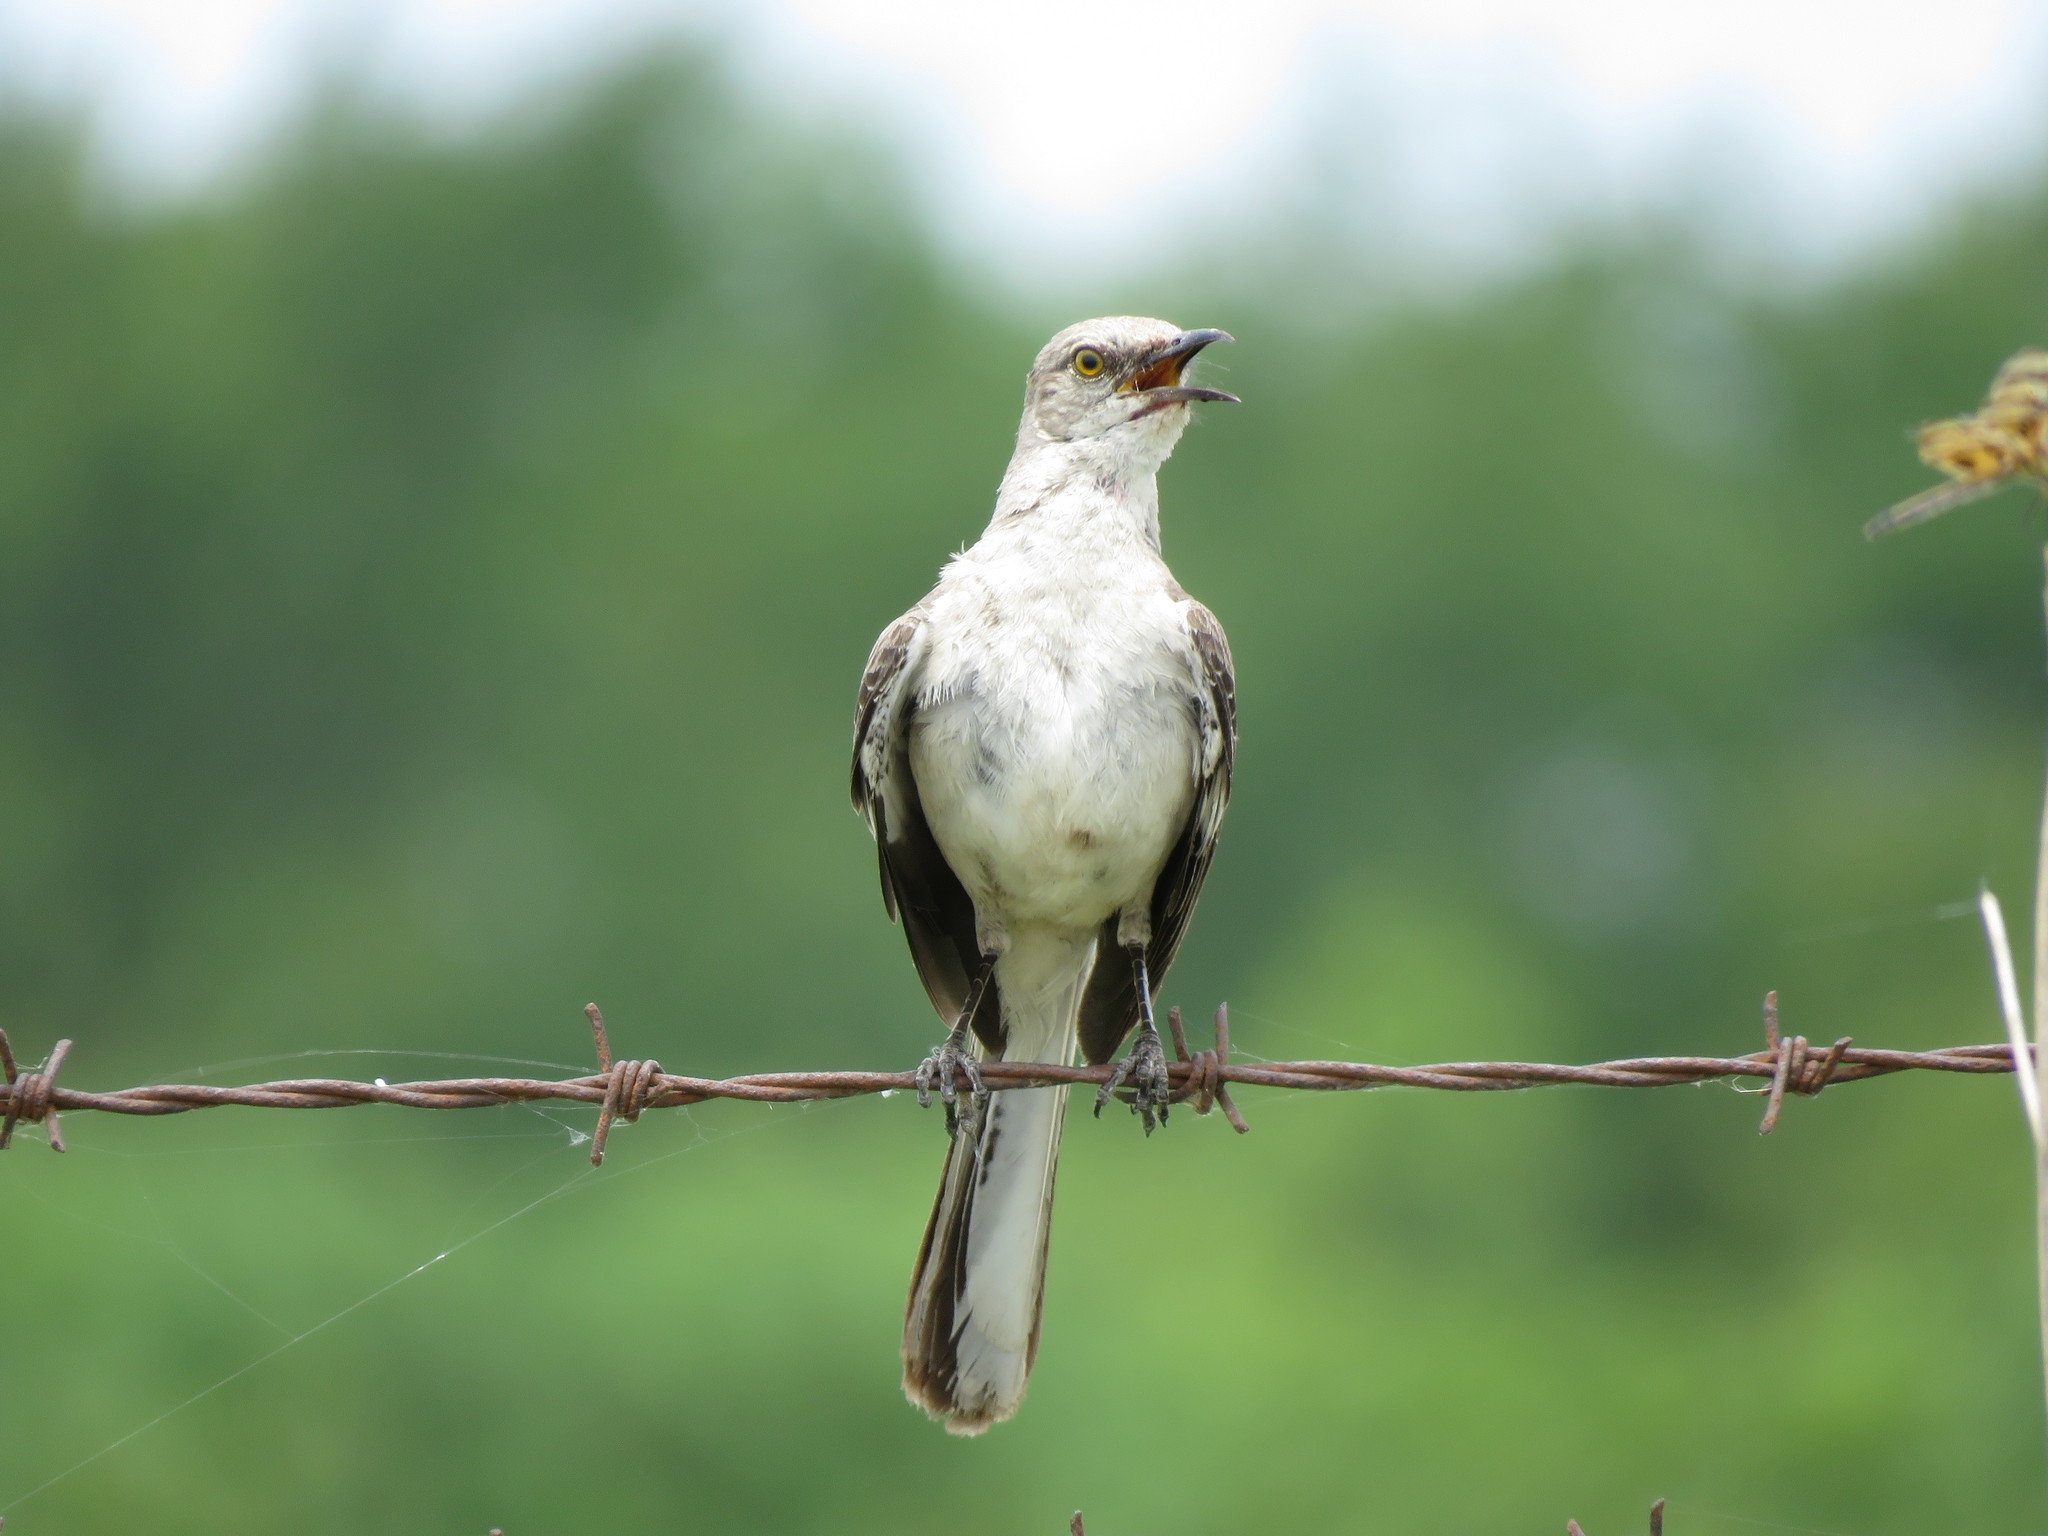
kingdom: Animalia
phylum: Chordata
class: Aves
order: Passeriformes
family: Mimidae
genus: Mimus
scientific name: Mimus polyglottos
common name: Northern mockingbird
